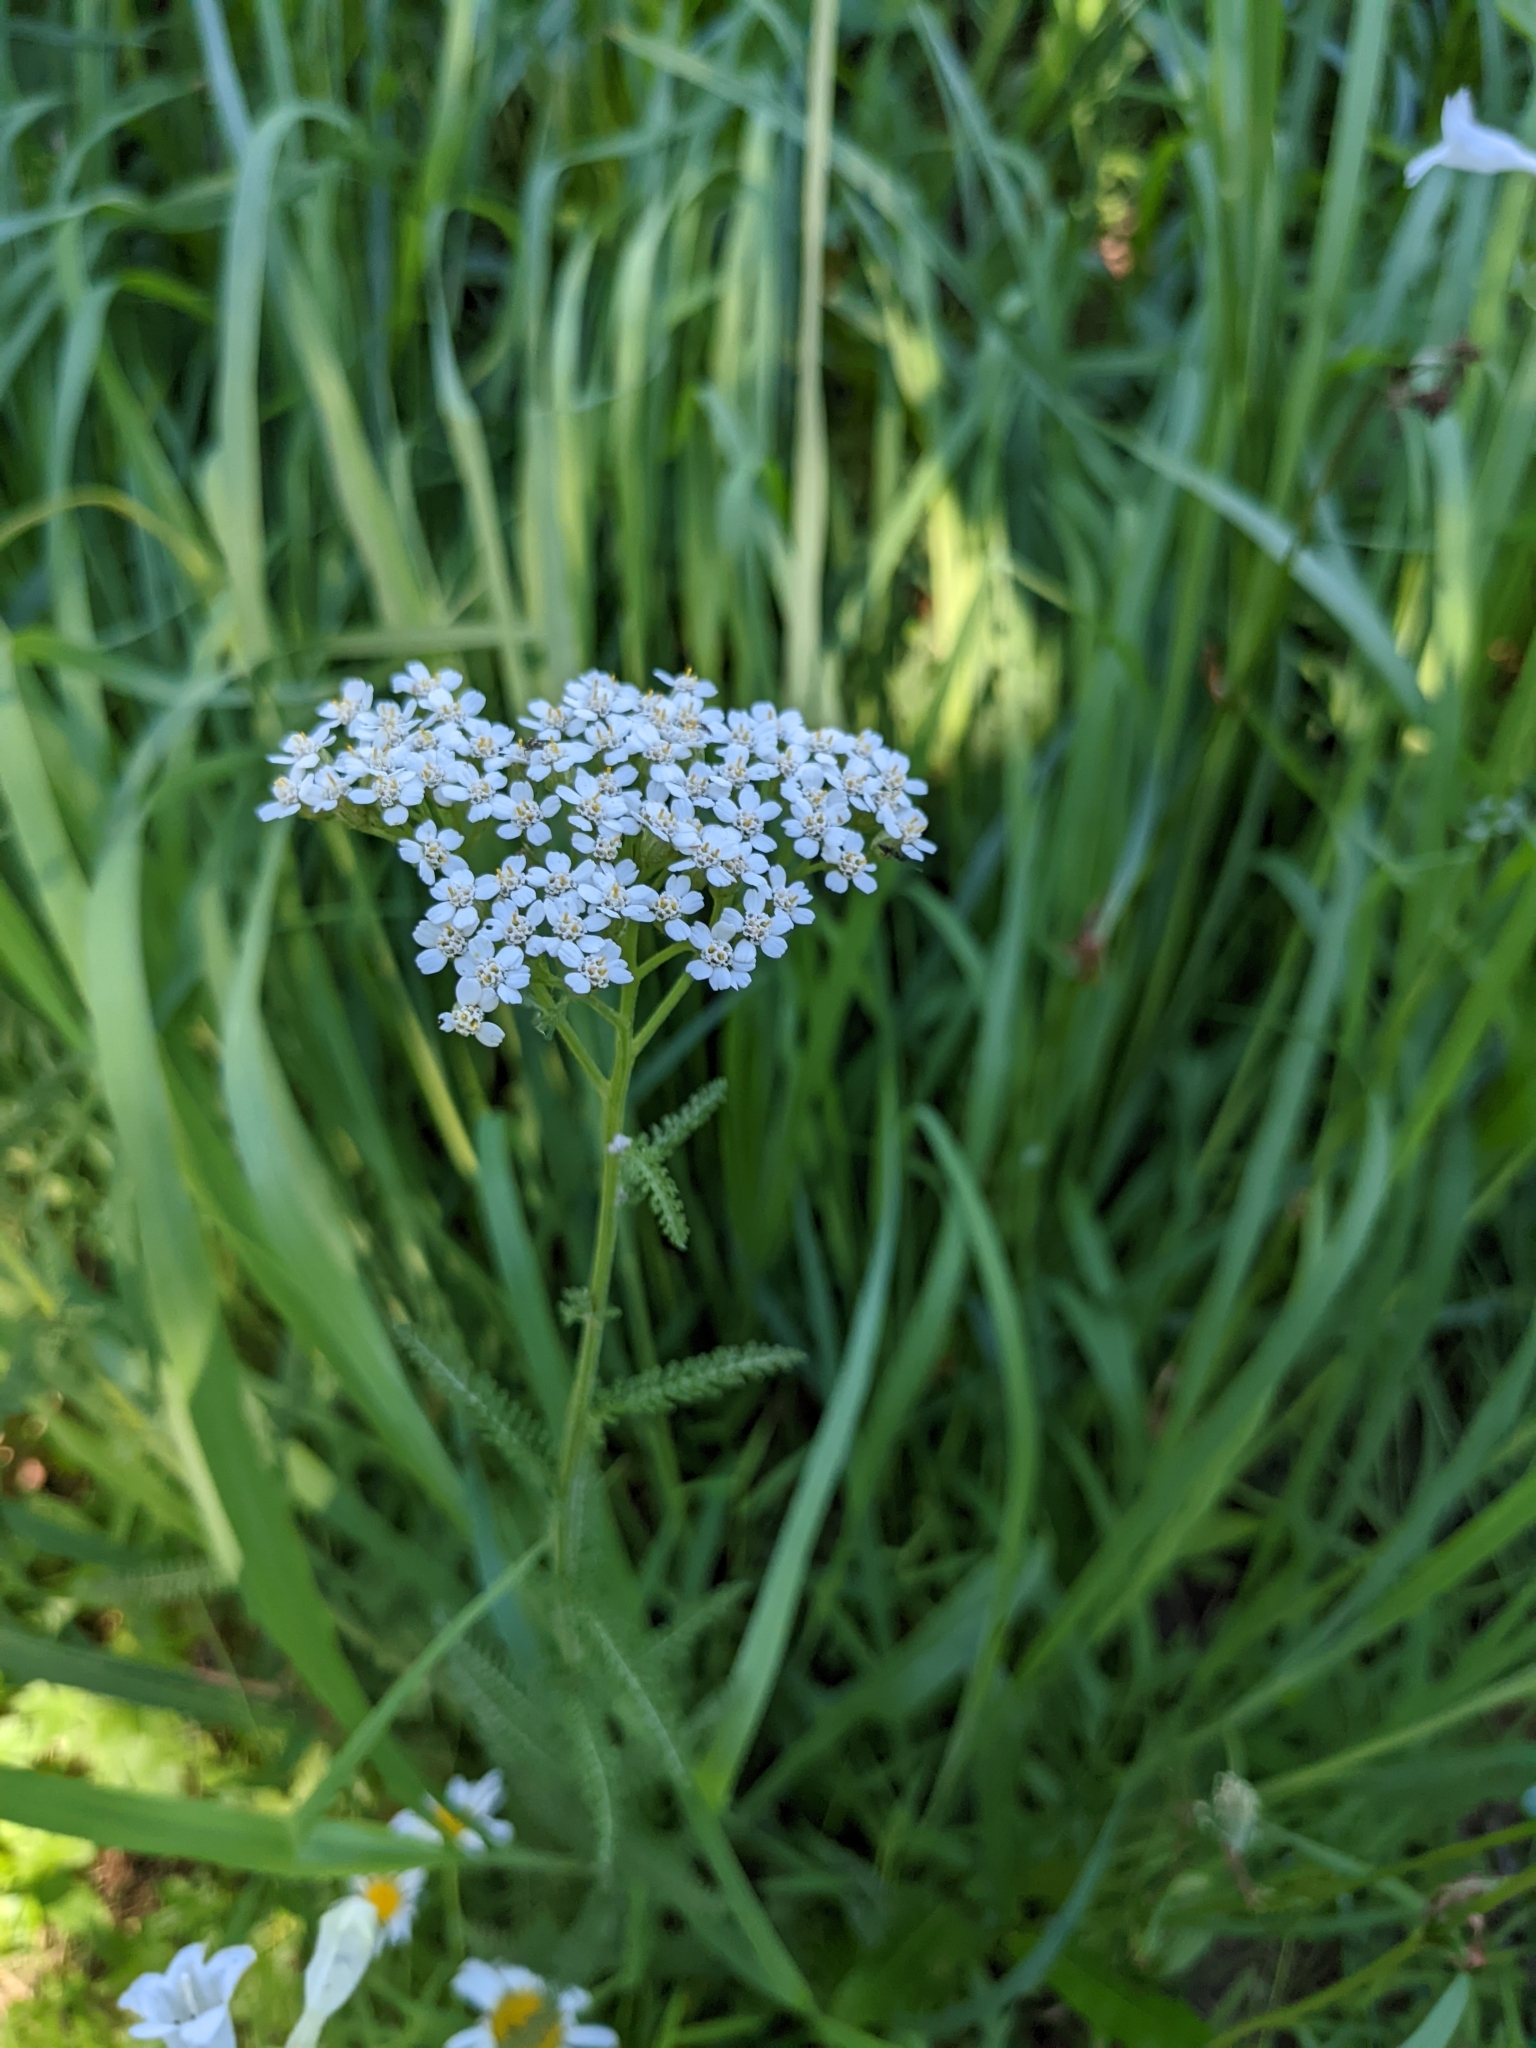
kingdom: Plantae
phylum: Tracheophyta
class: Magnoliopsida
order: Asterales
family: Asteraceae
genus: Achillea
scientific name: Achillea millefolium
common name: Yarrow
